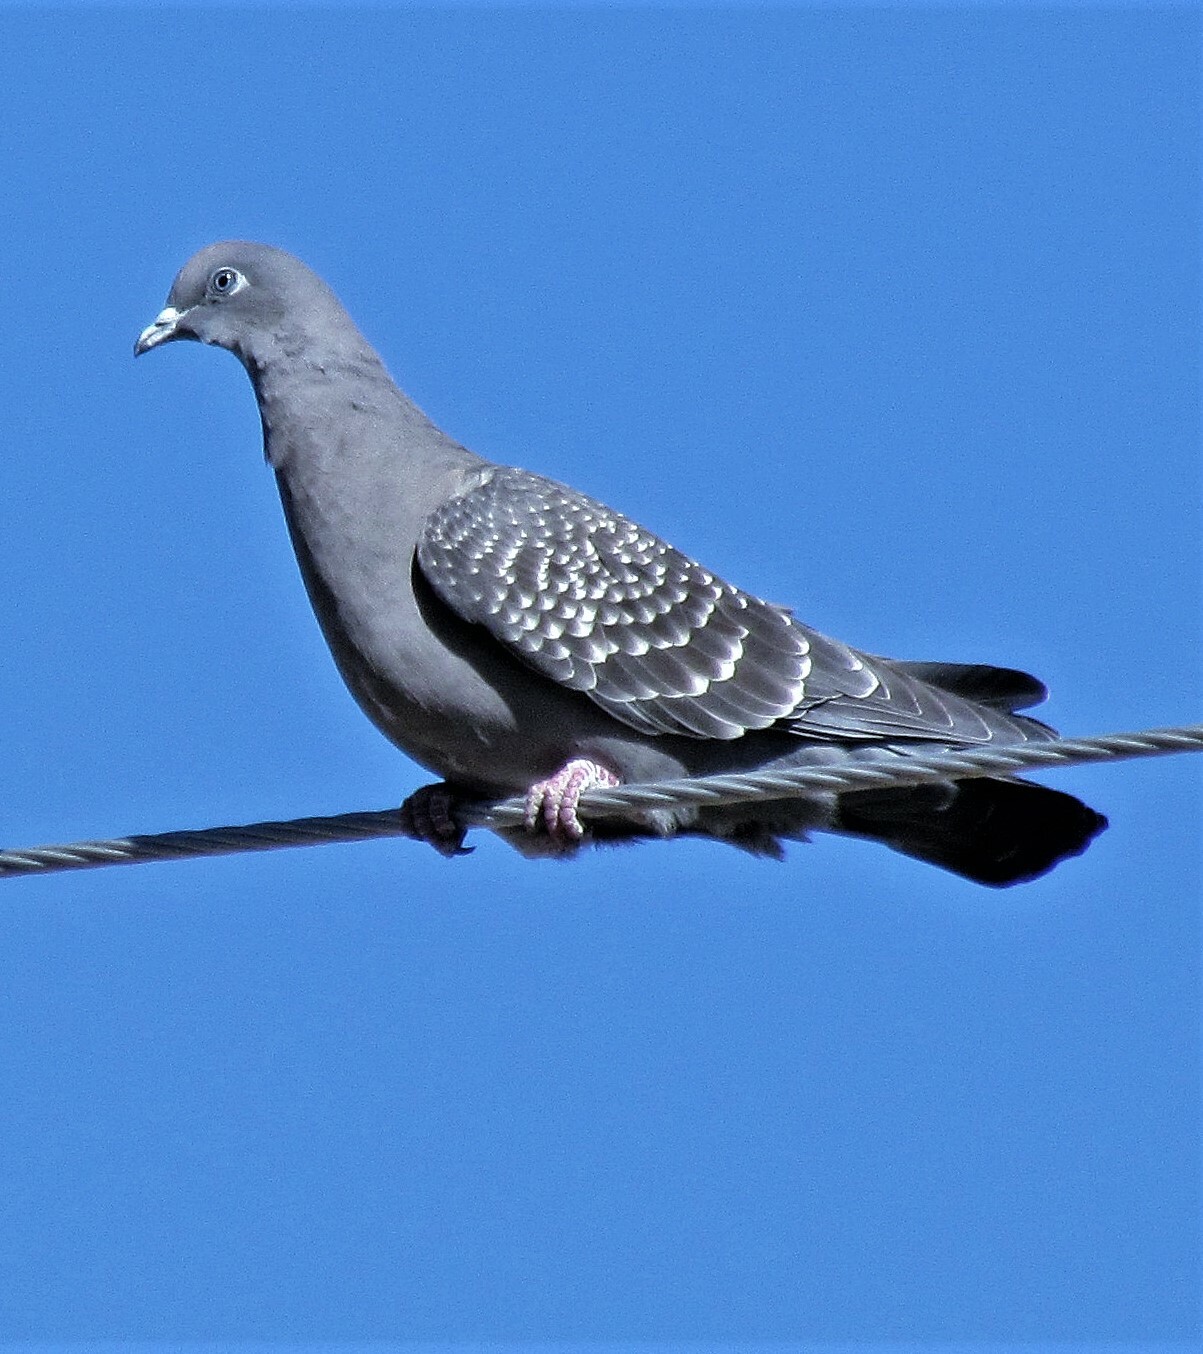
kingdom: Animalia
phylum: Chordata
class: Aves
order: Columbiformes
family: Columbidae
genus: Patagioenas
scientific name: Patagioenas maculosa
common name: Spot-winged pigeon
